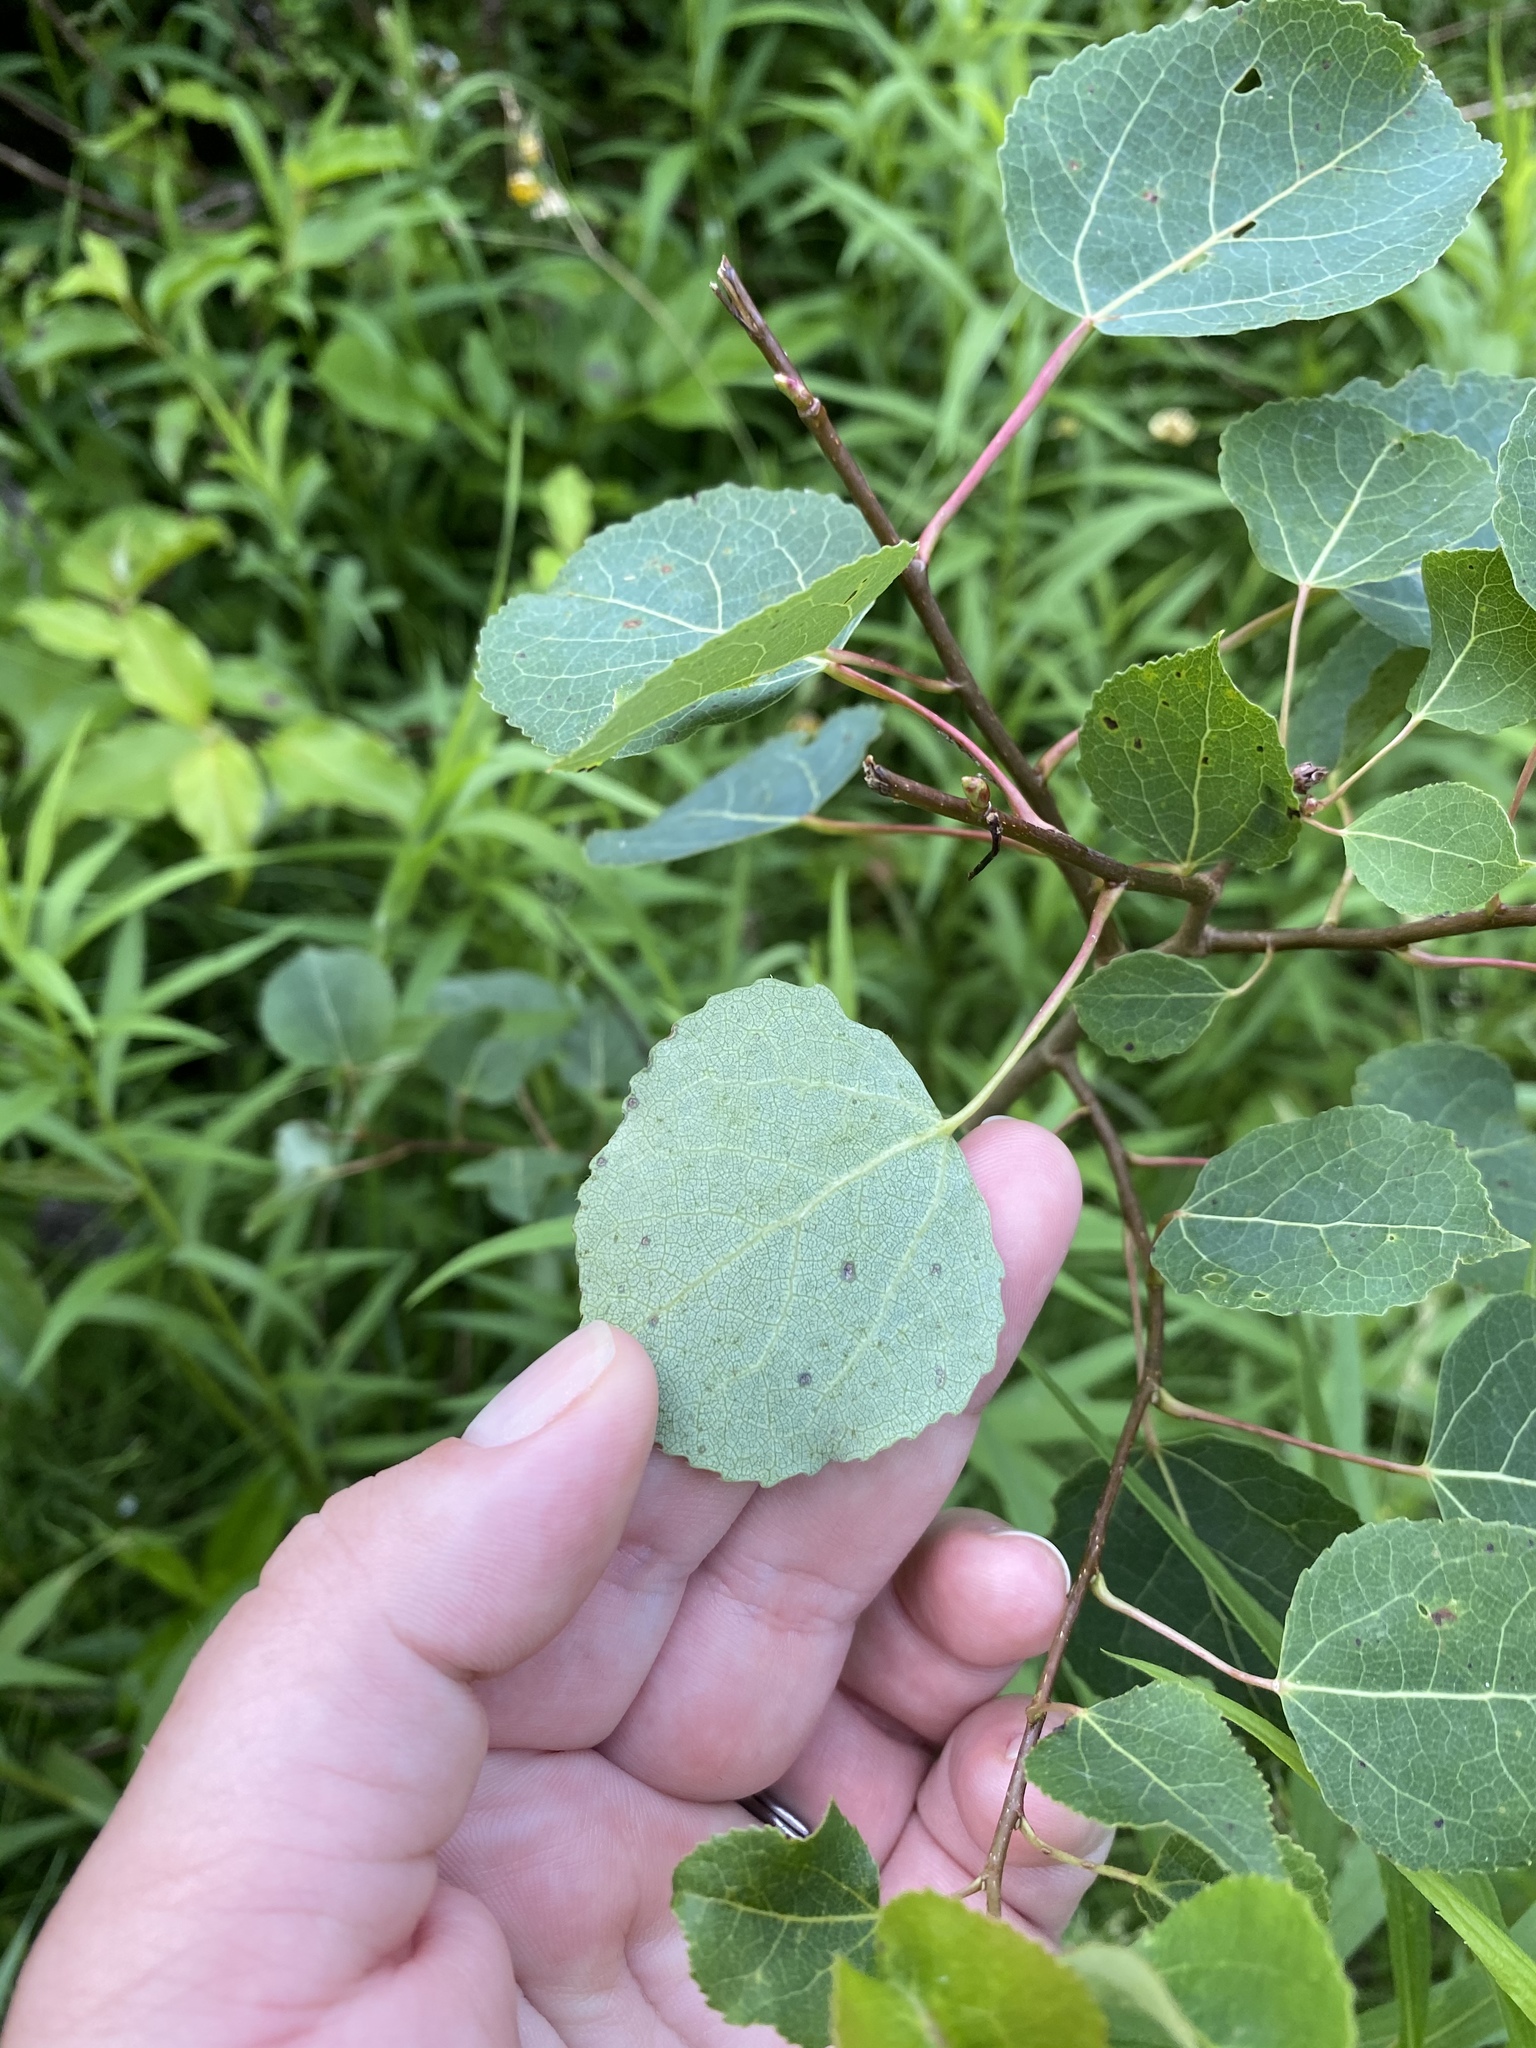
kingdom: Plantae
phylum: Tracheophyta
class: Magnoliopsida
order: Malpighiales
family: Salicaceae
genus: Populus
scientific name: Populus tremuloides
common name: Quaking aspen
